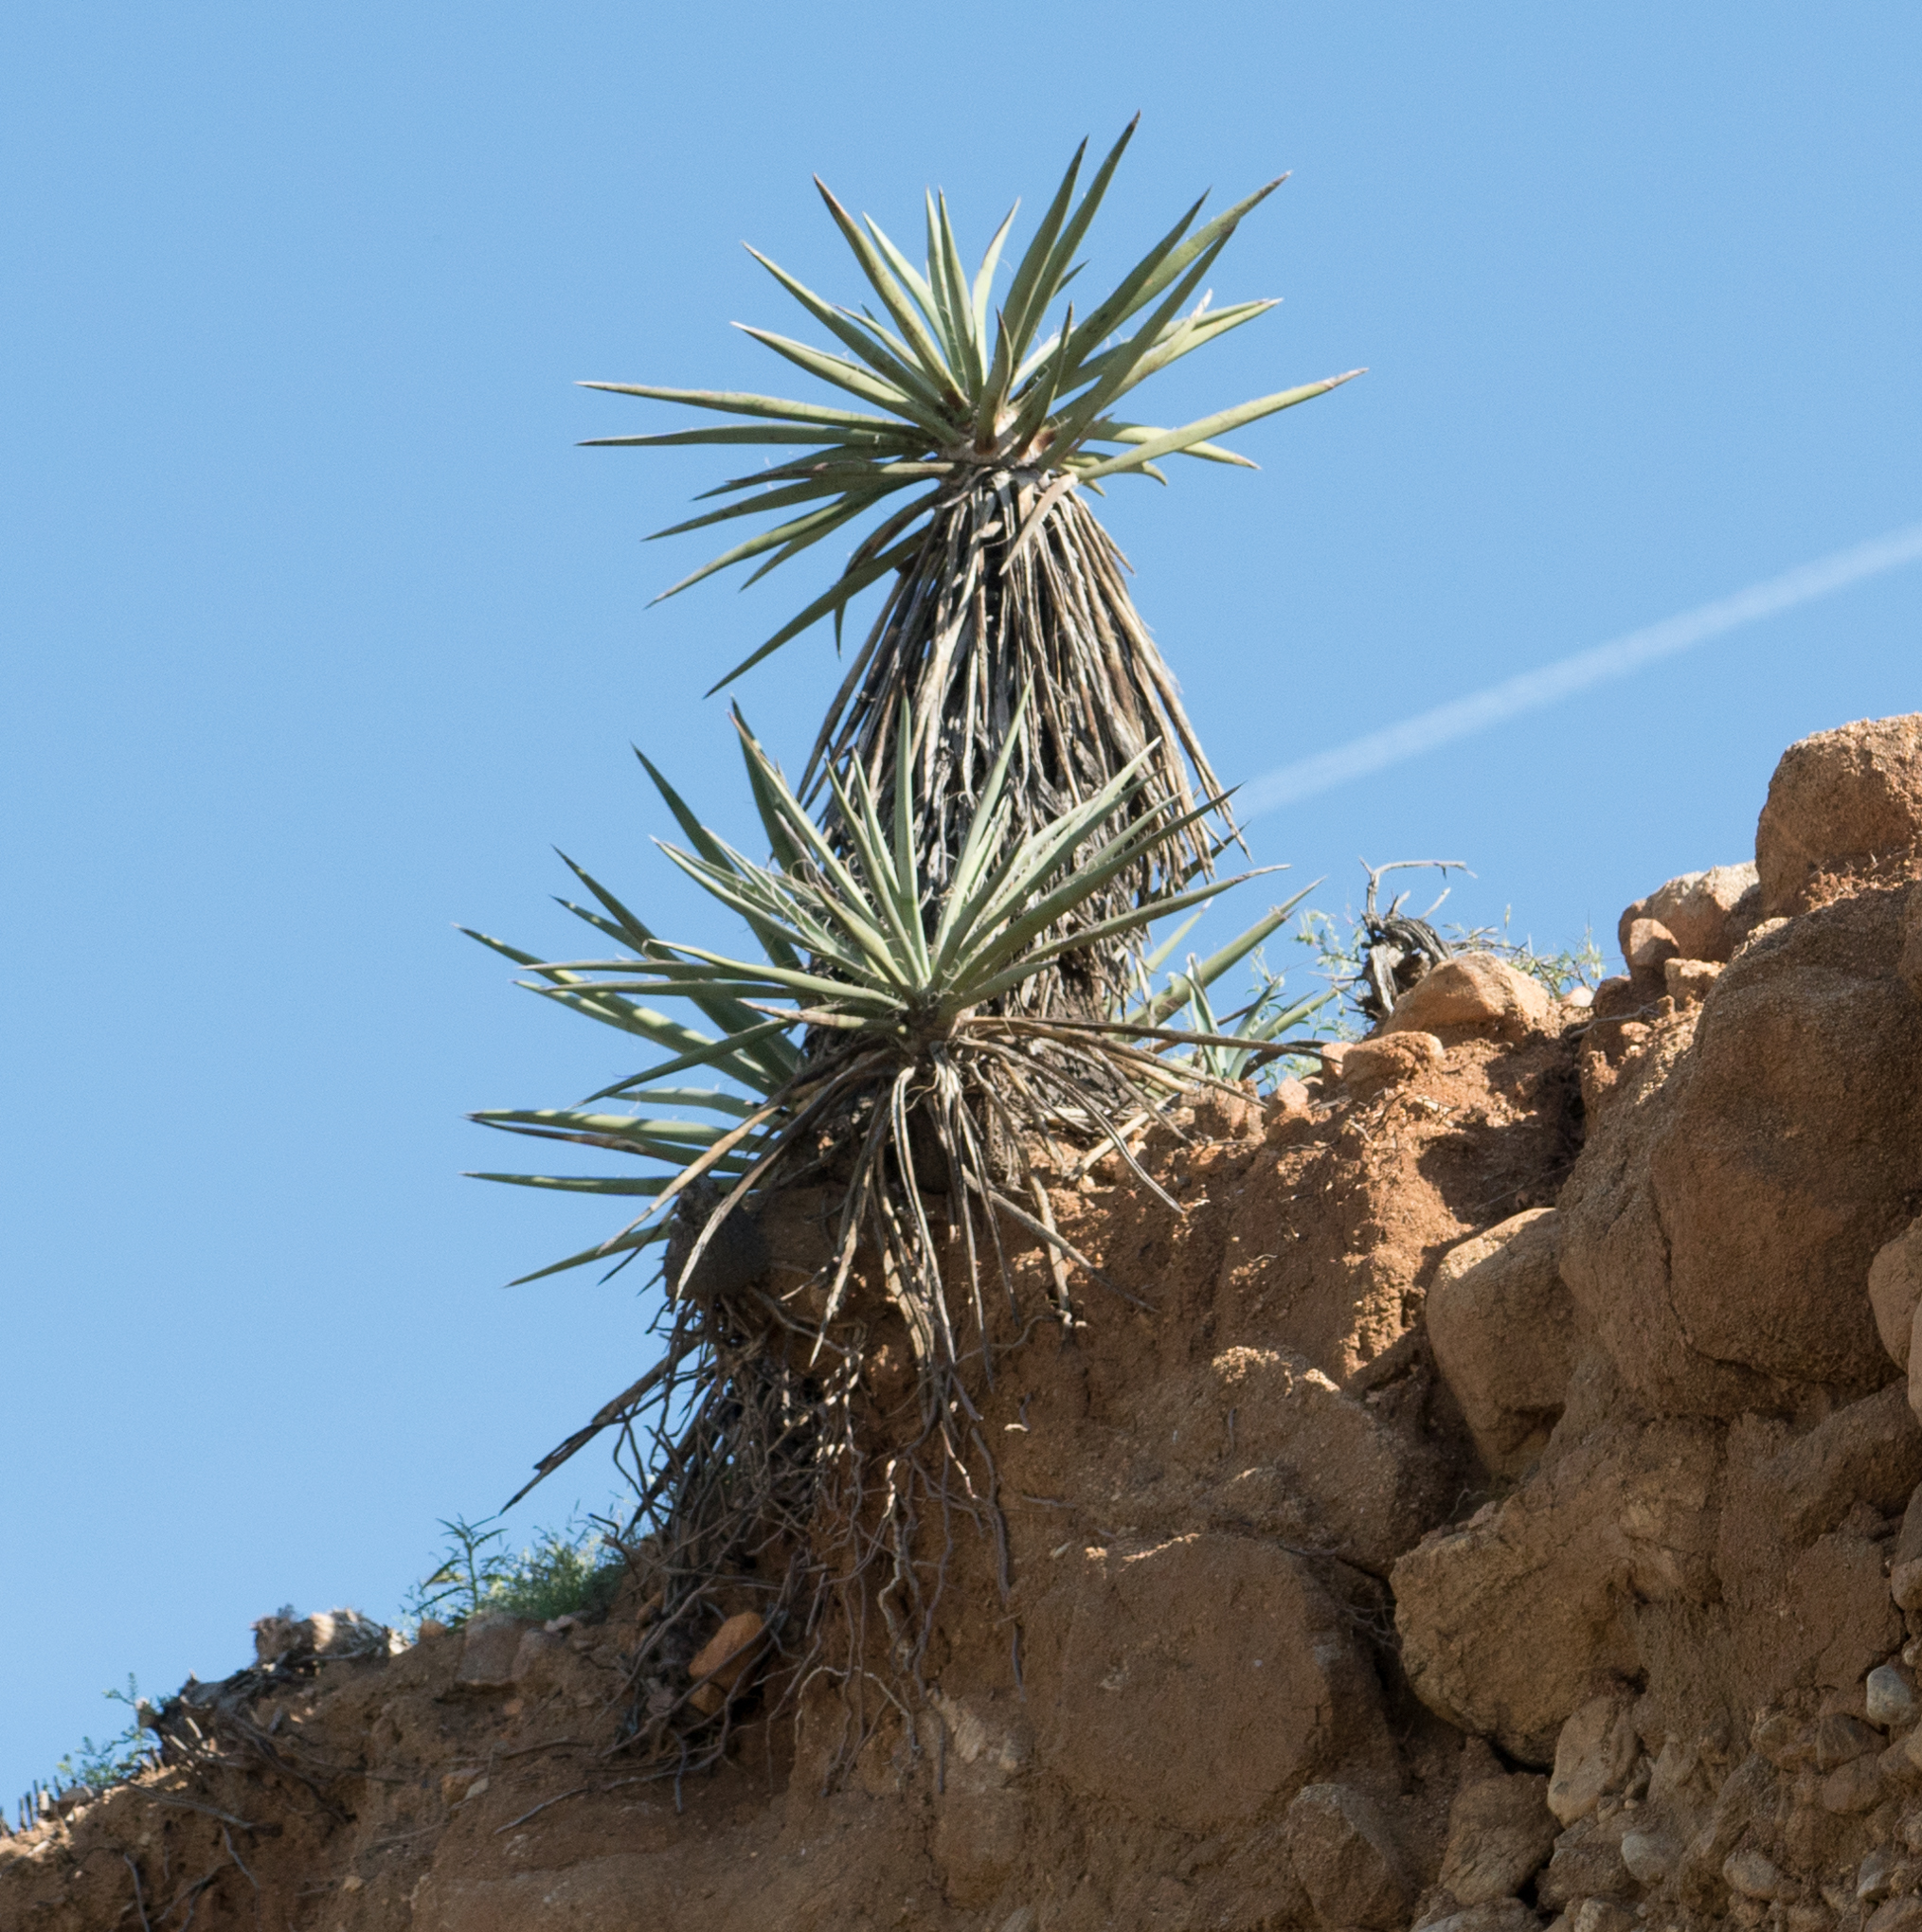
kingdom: Plantae
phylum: Tracheophyta
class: Liliopsida
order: Asparagales
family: Asparagaceae
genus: Yucca
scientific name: Yucca schidigera
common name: Mojave yucca
